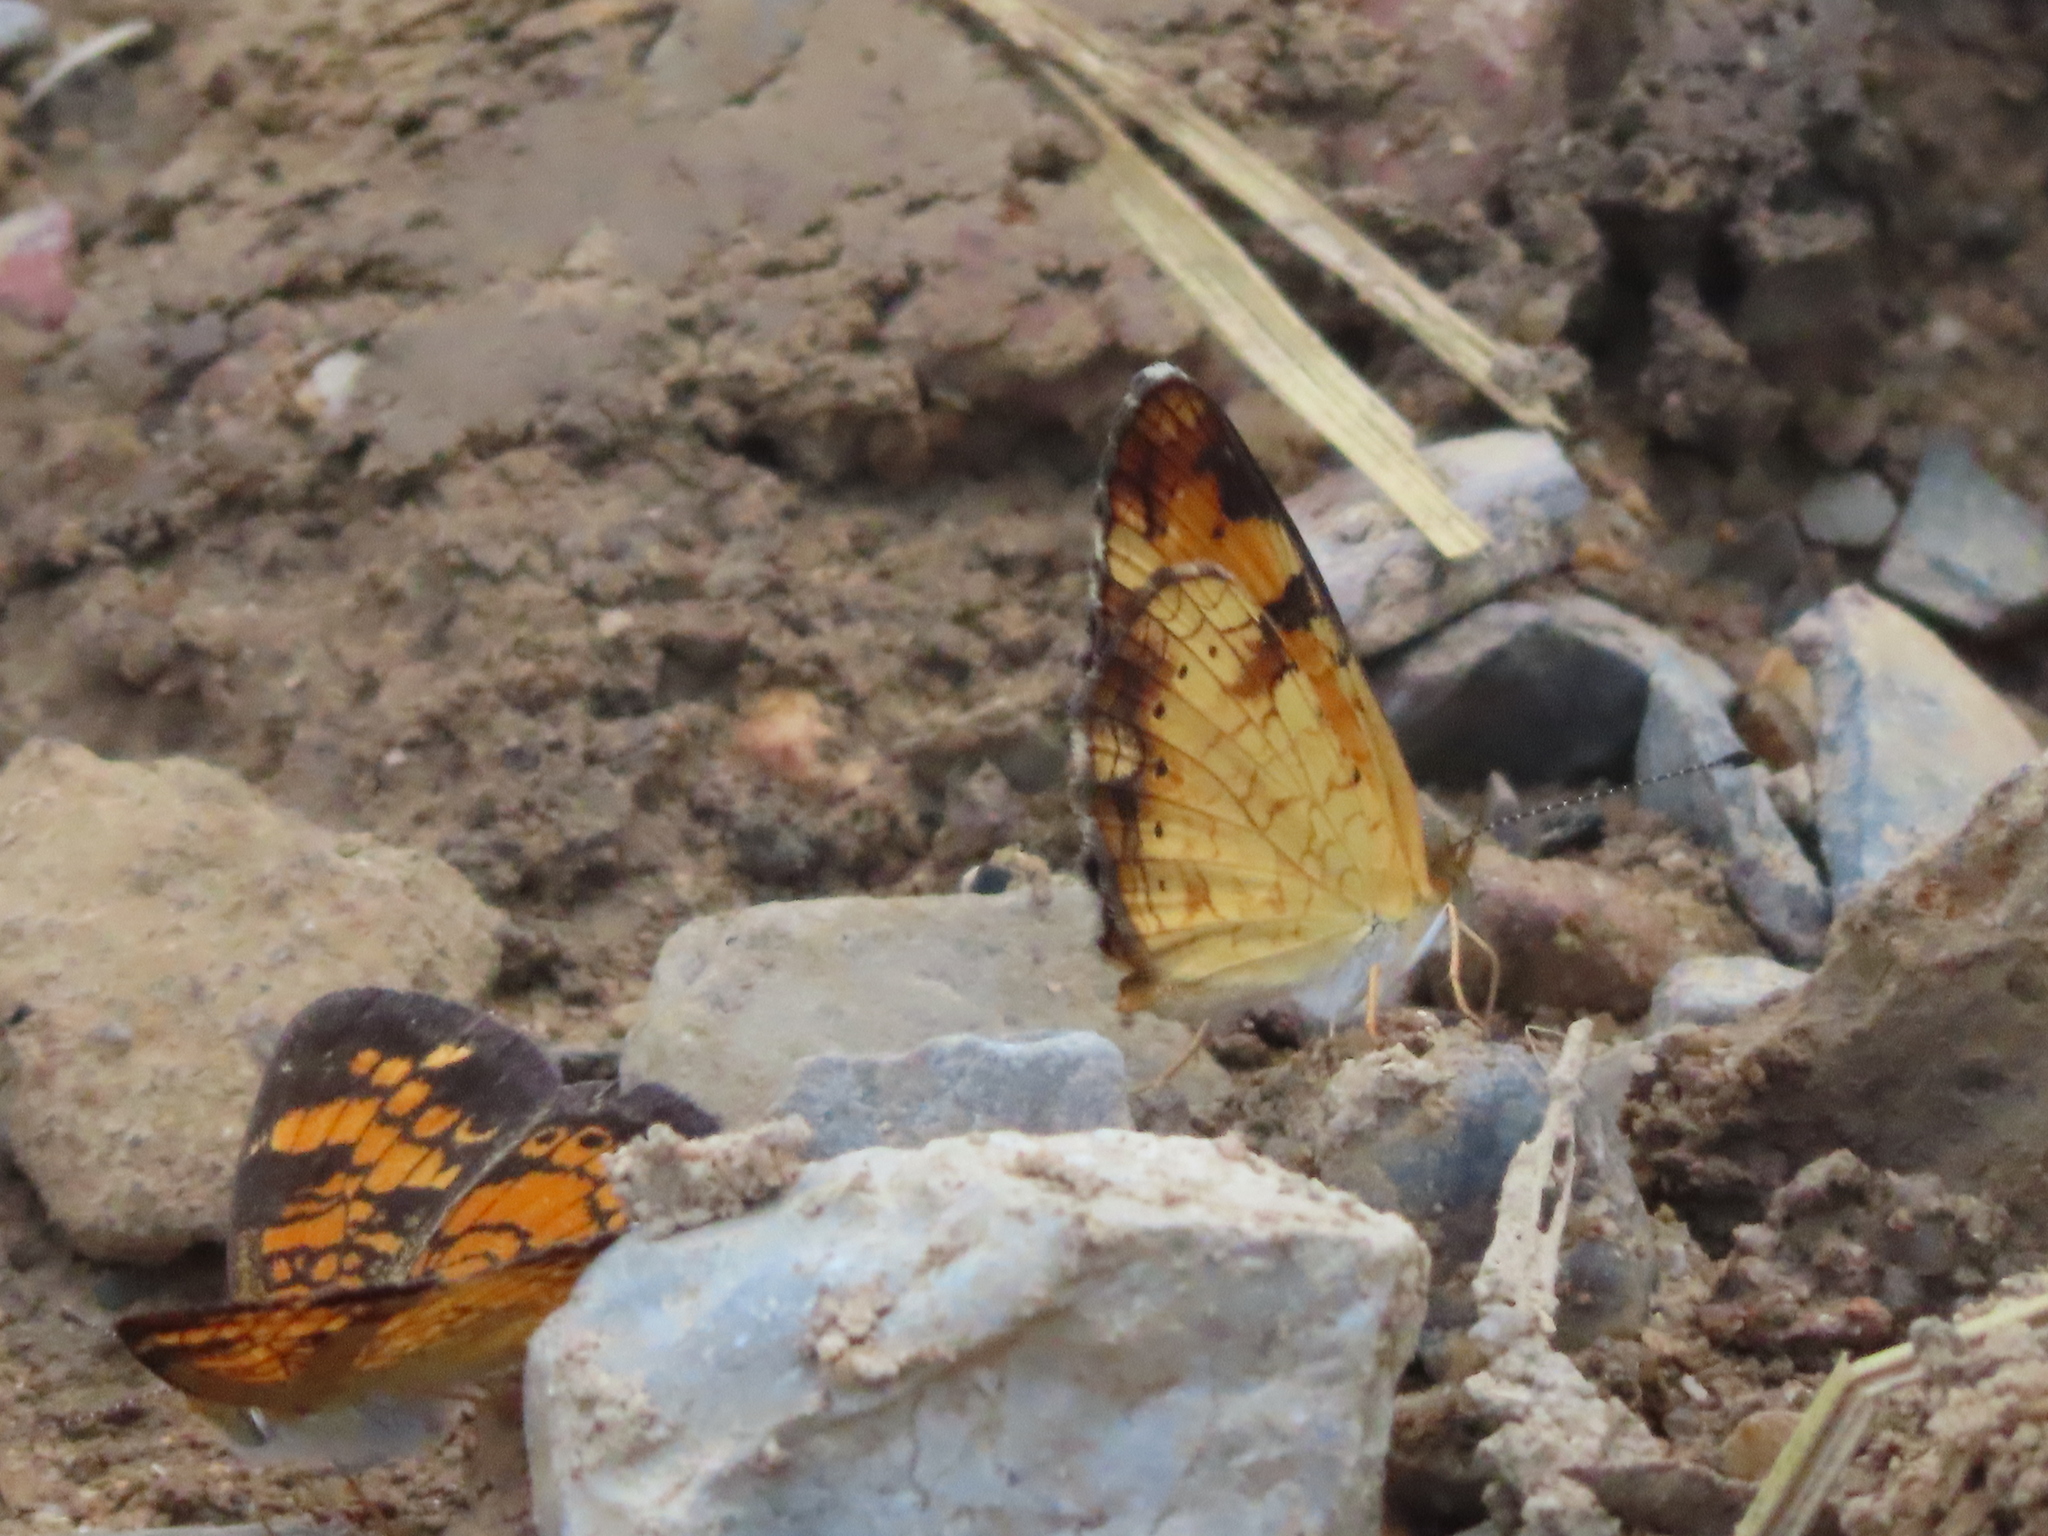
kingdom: Animalia
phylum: Arthropoda
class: Insecta
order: Lepidoptera
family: Nymphalidae
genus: Phyciodes
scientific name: Phyciodes tharos
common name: Pearl crescent
